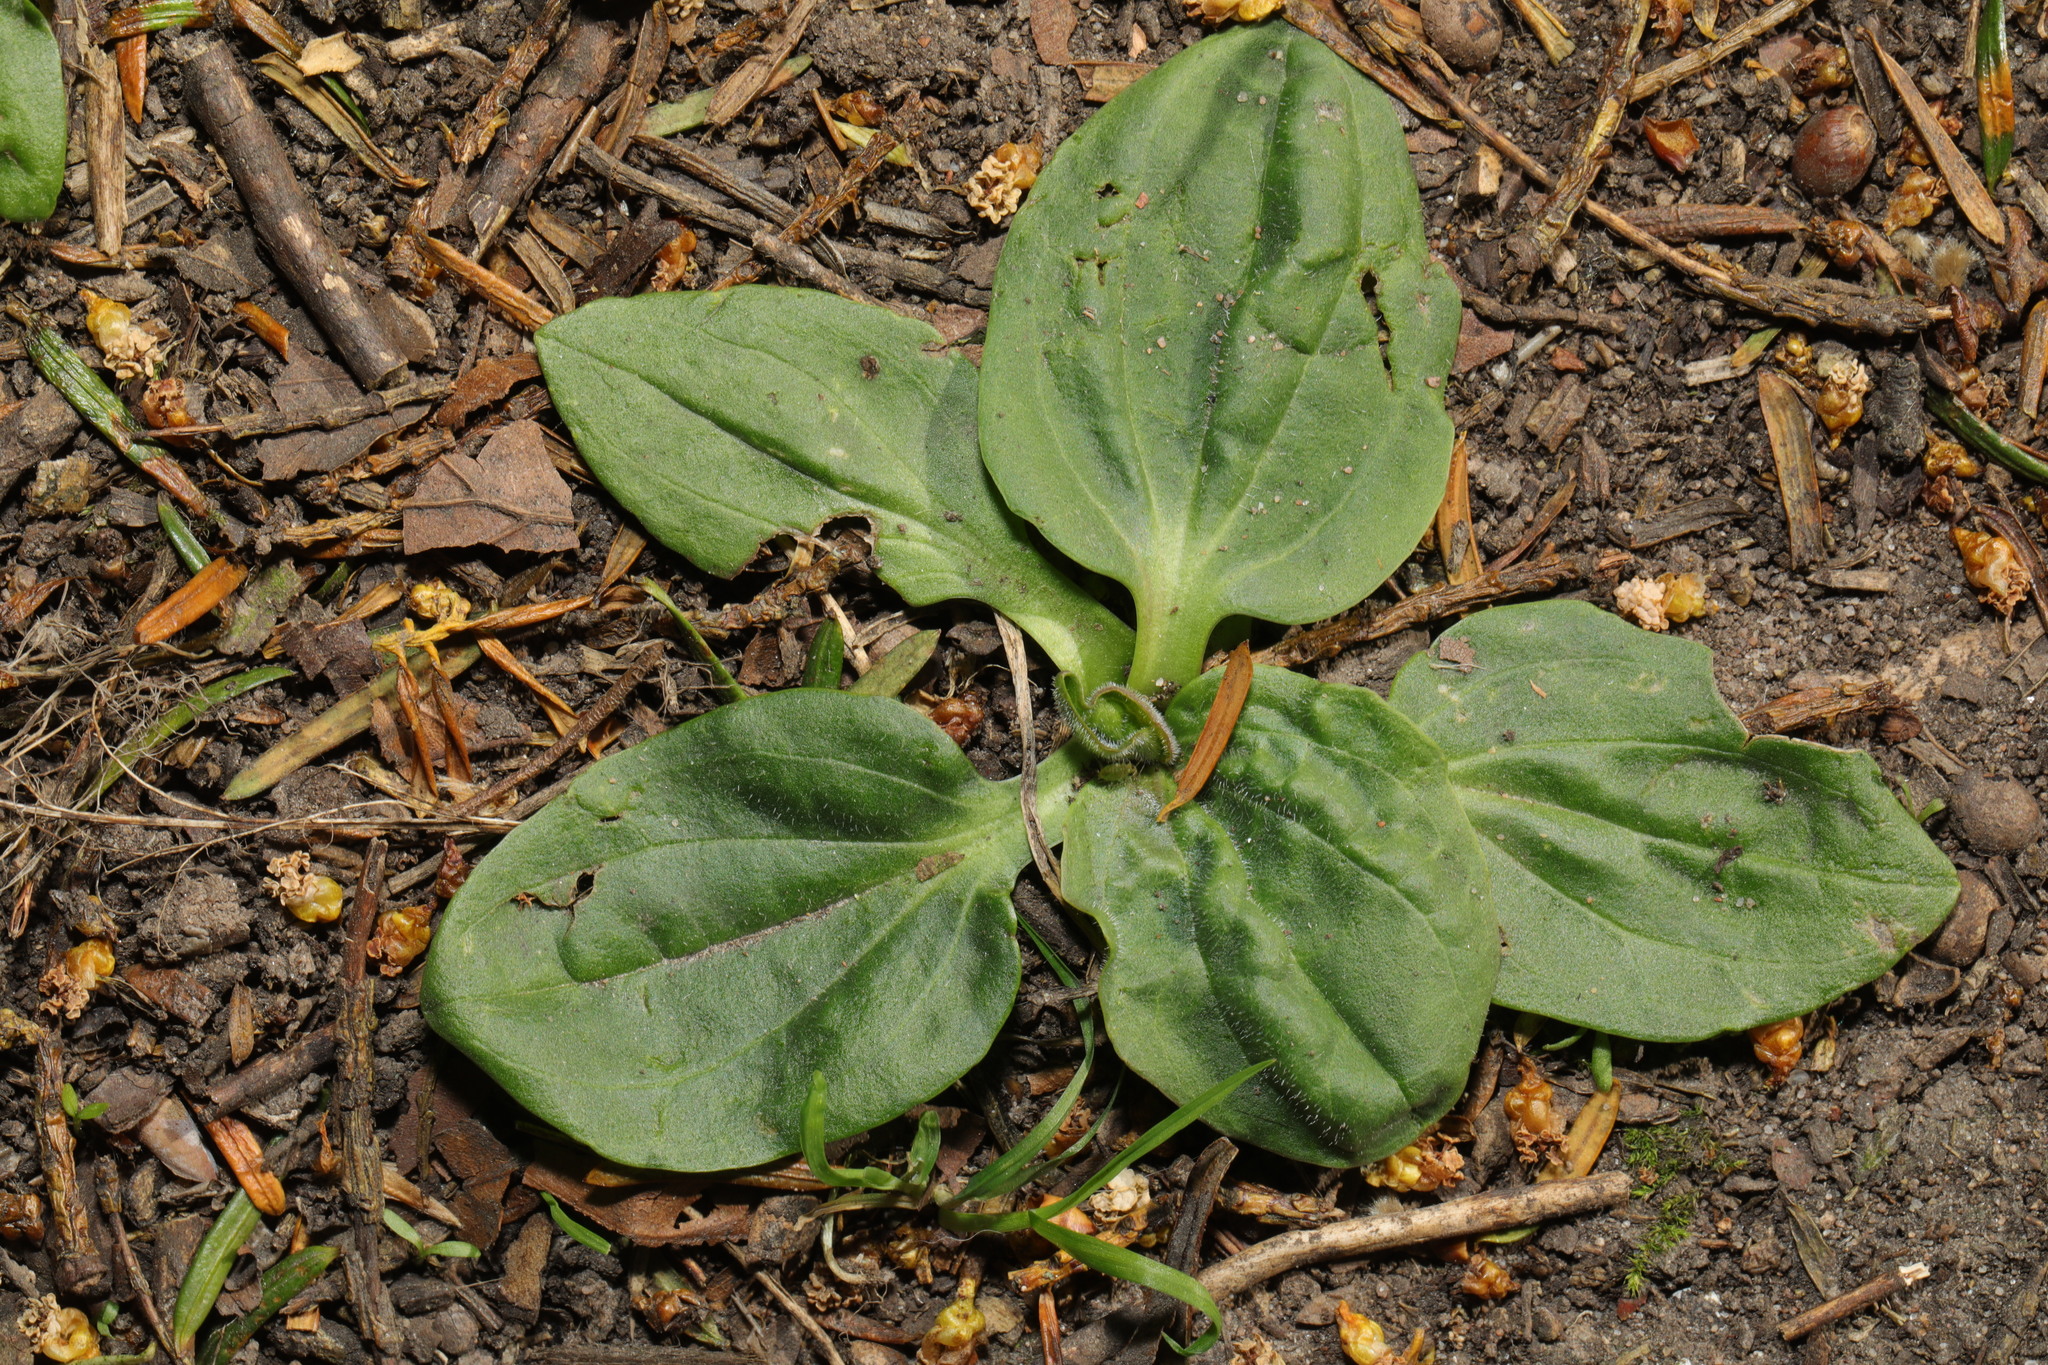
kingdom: Plantae
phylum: Tracheophyta
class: Magnoliopsida
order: Lamiales
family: Plantaginaceae
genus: Plantago
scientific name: Plantago major
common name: Common plantain
